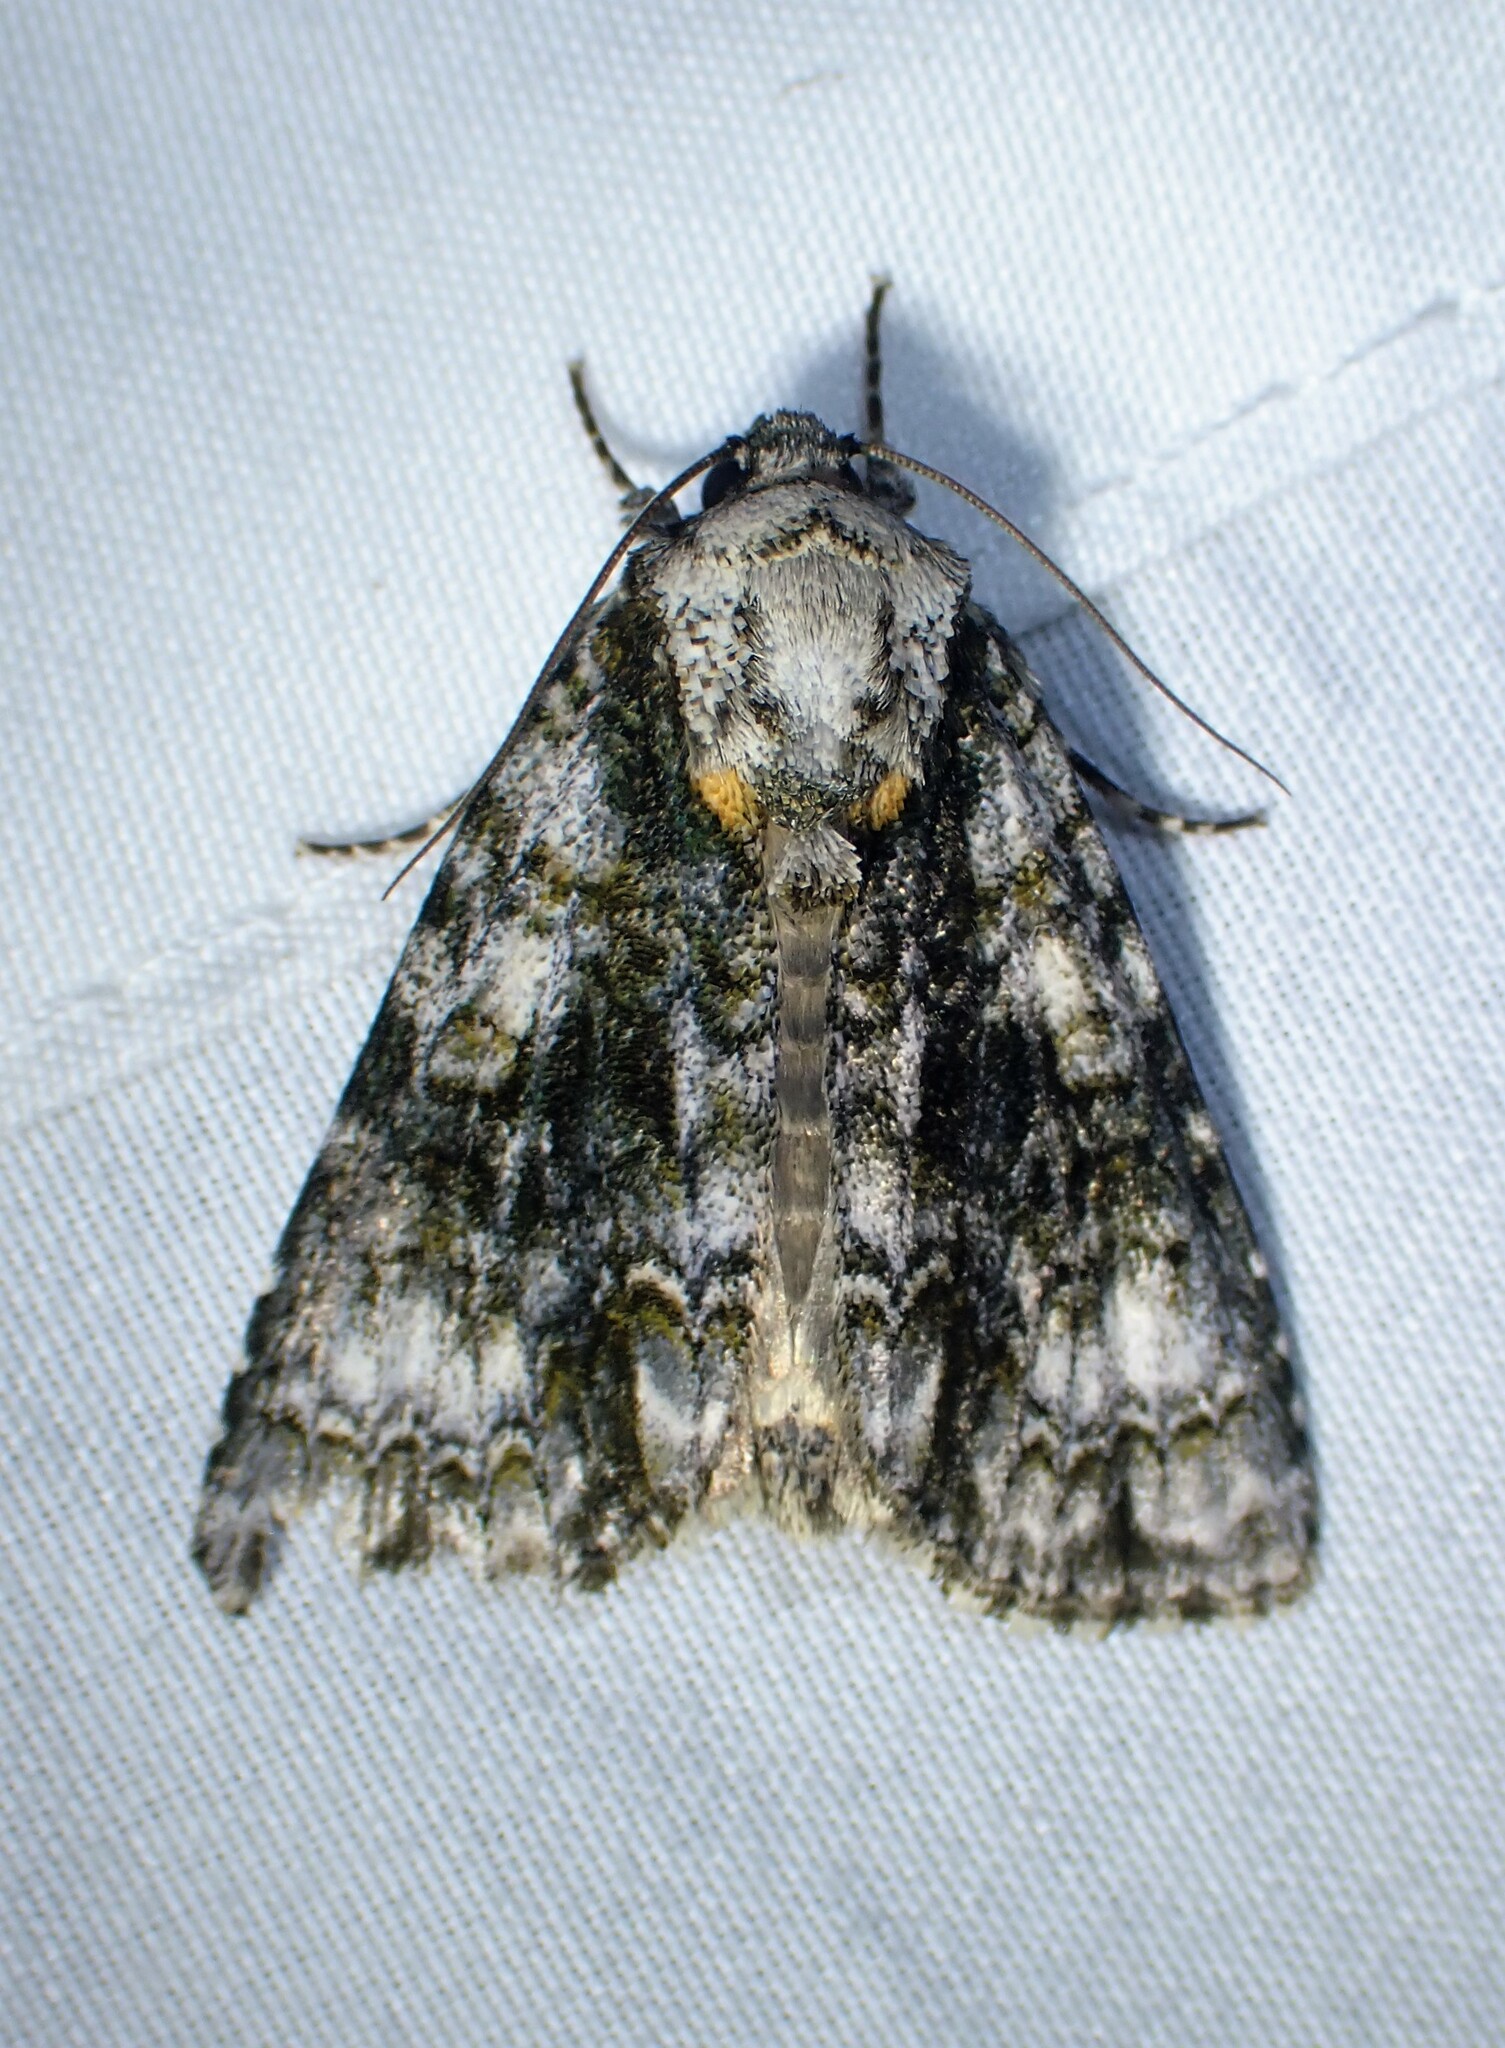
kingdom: Animalia
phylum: Arthropoda
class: Insecta
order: Lepidoptera
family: Noctuidae
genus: Acronicta
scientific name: Acronicta superans
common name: Splendid dagger
